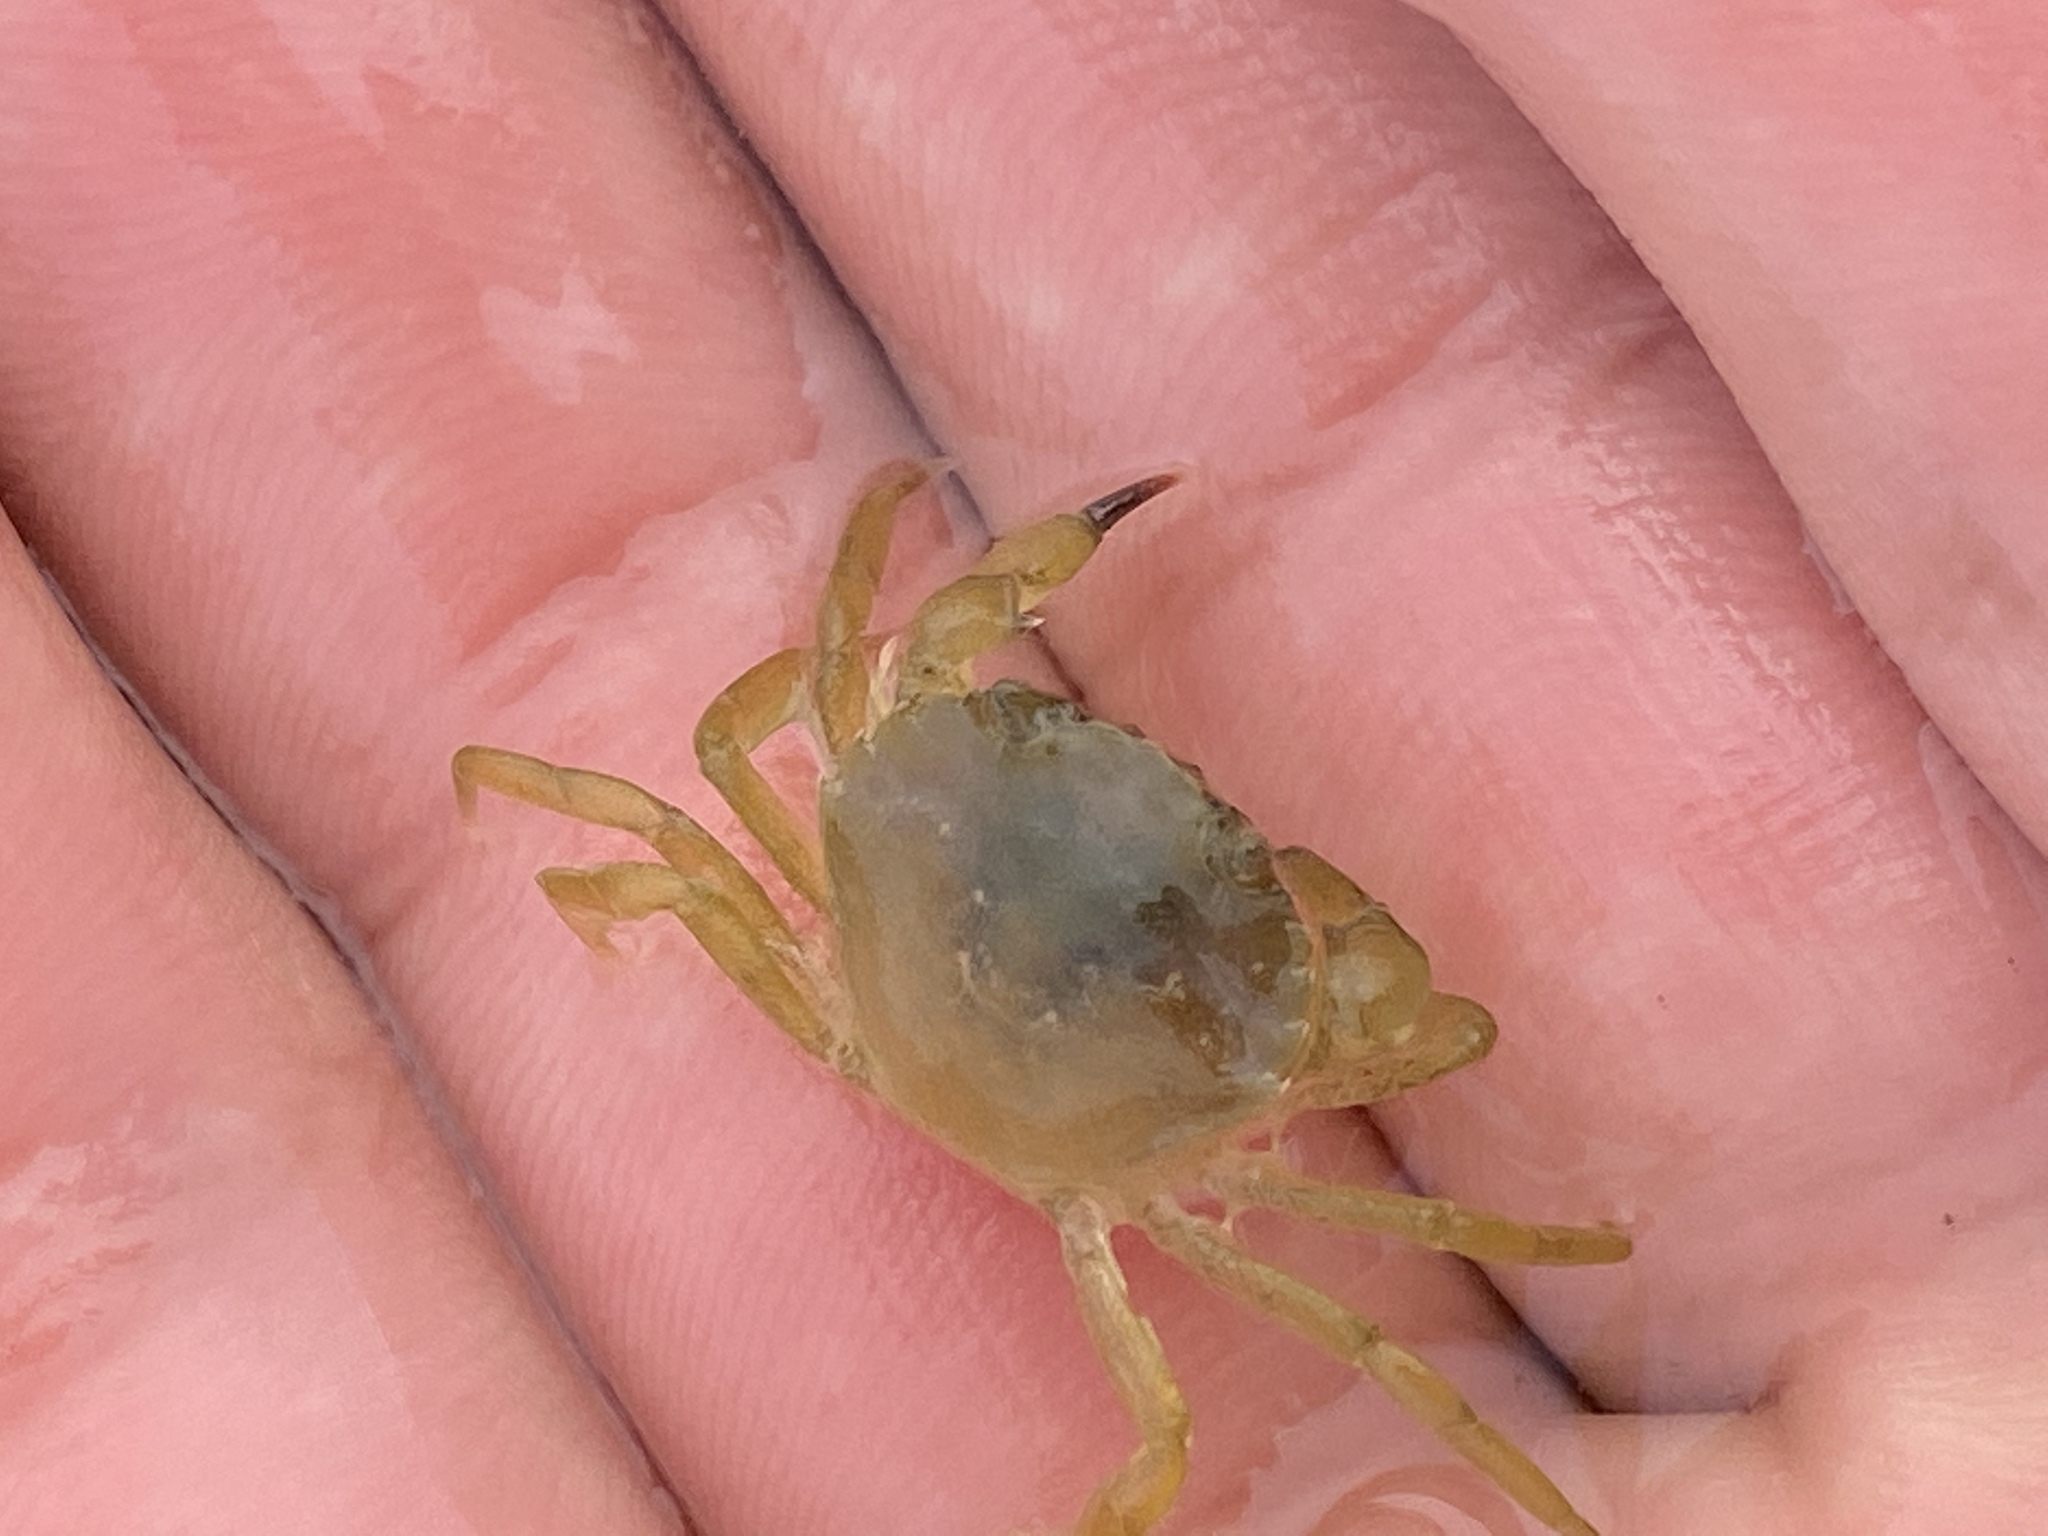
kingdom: Animalia
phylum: Arthropoda
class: Malacostraca
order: Decapoda
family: Carcinidae
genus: Carcinus
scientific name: Carcinus maenas
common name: European green crab
